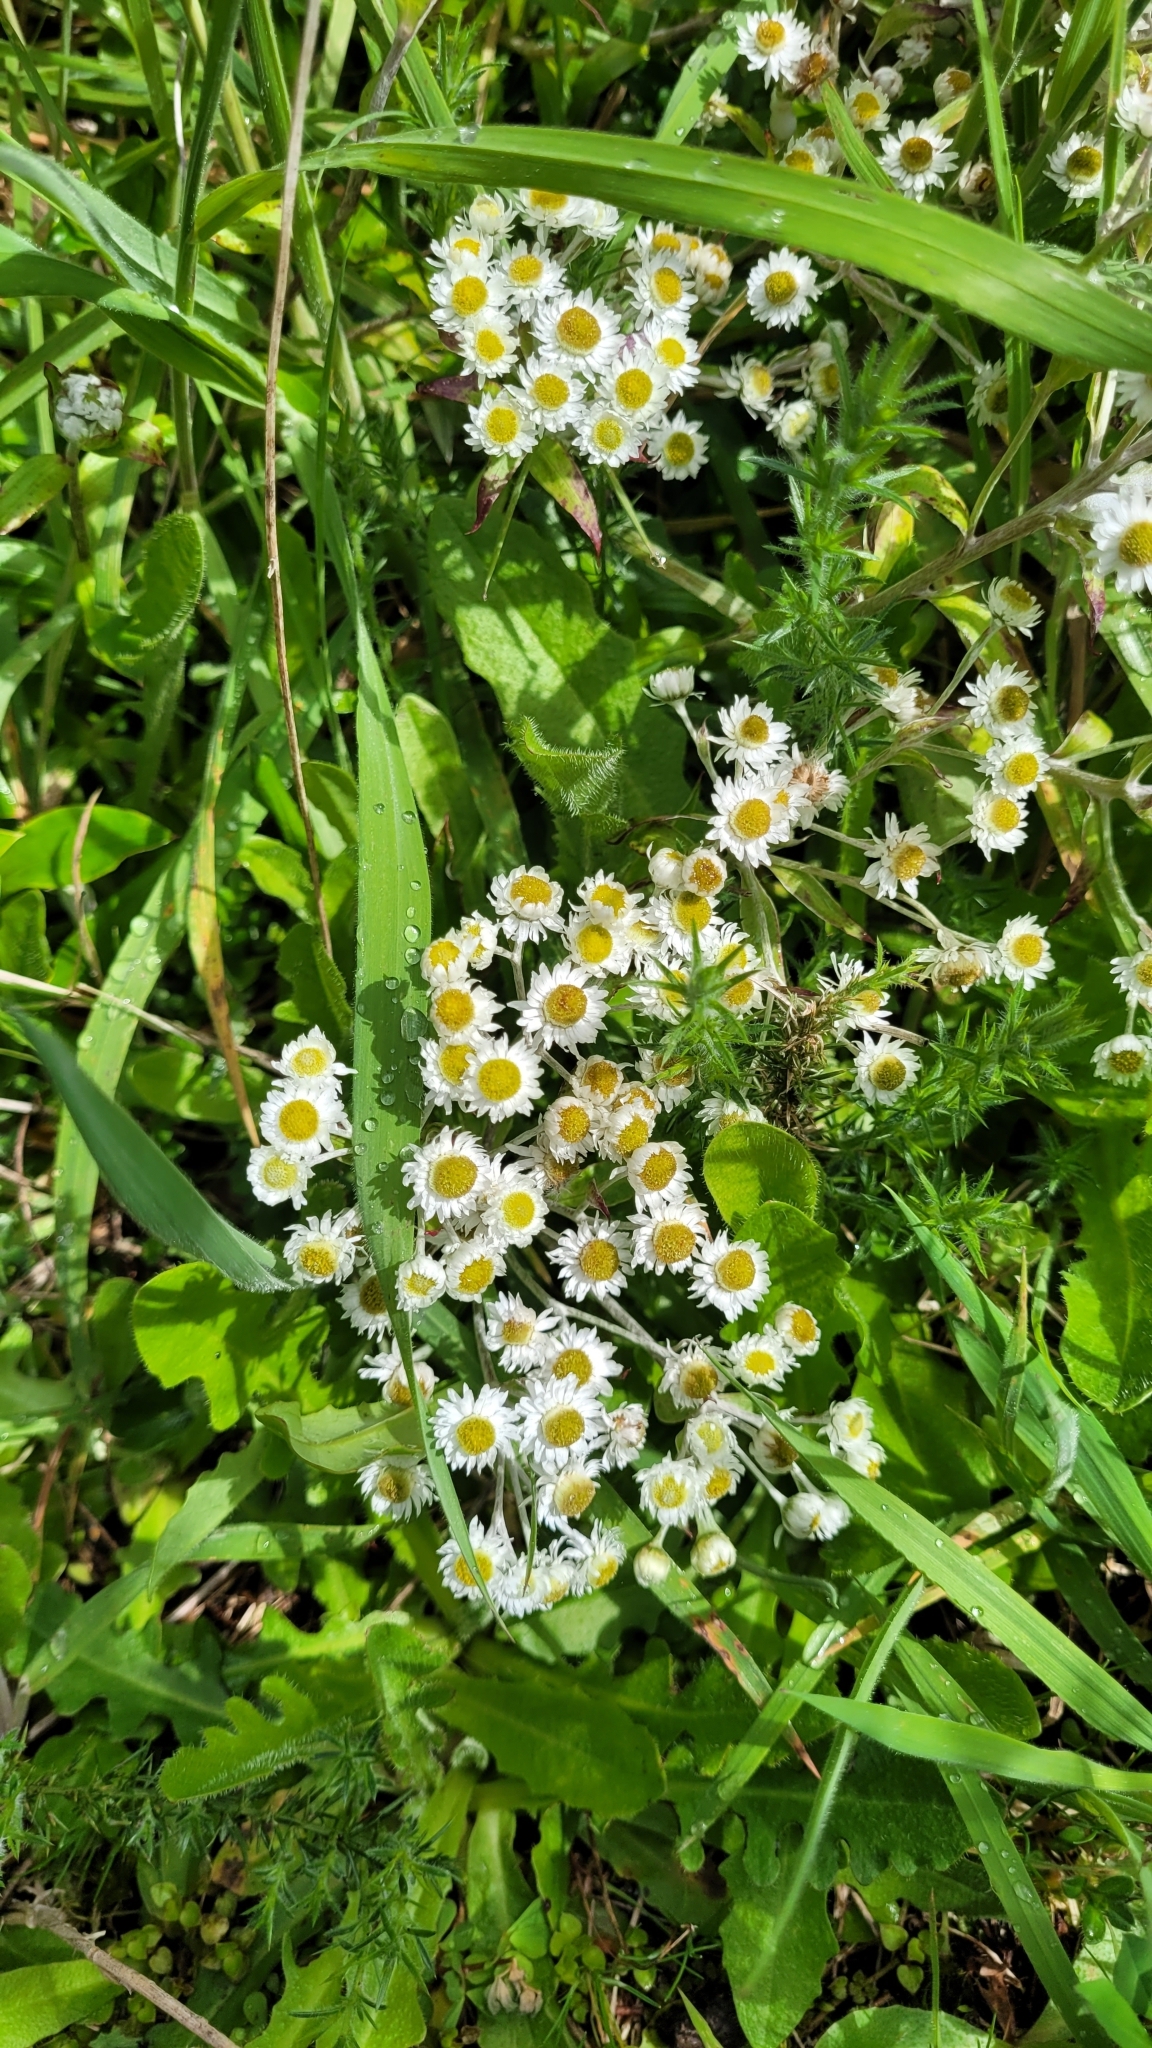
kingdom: Plantae
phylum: Tracheophyta
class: Magnoliopsida
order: Asterales
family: Asteraceae
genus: Anaphalioides
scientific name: Anaphalioides trinervis
